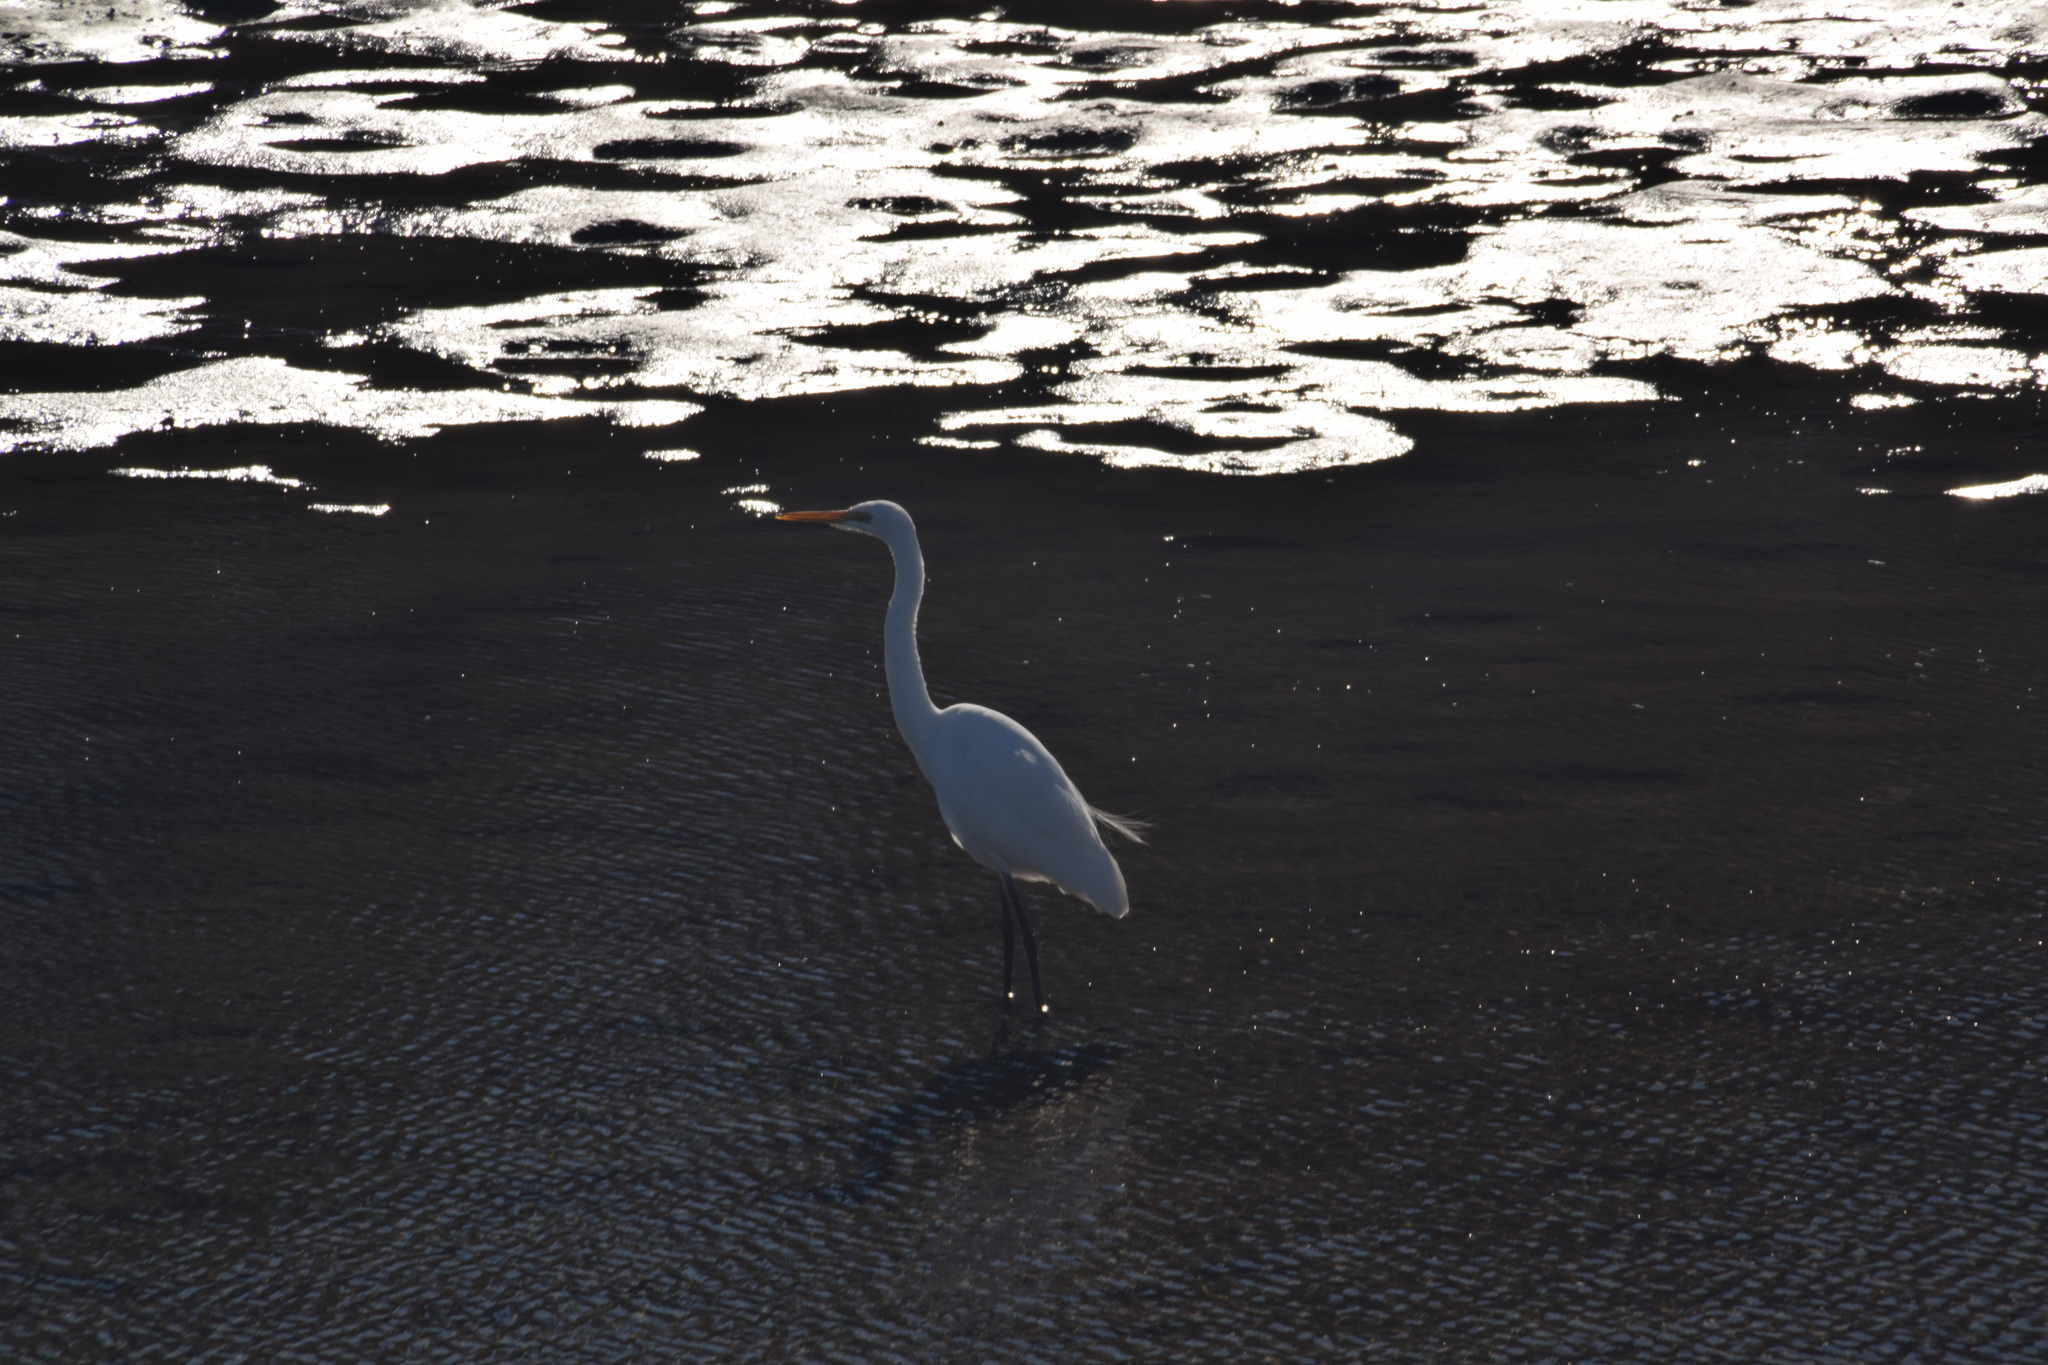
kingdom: Animalia
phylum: Chordata
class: Aves
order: Pelecaniformes
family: Ardeidae
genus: Ardea
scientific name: Ardea modesta
